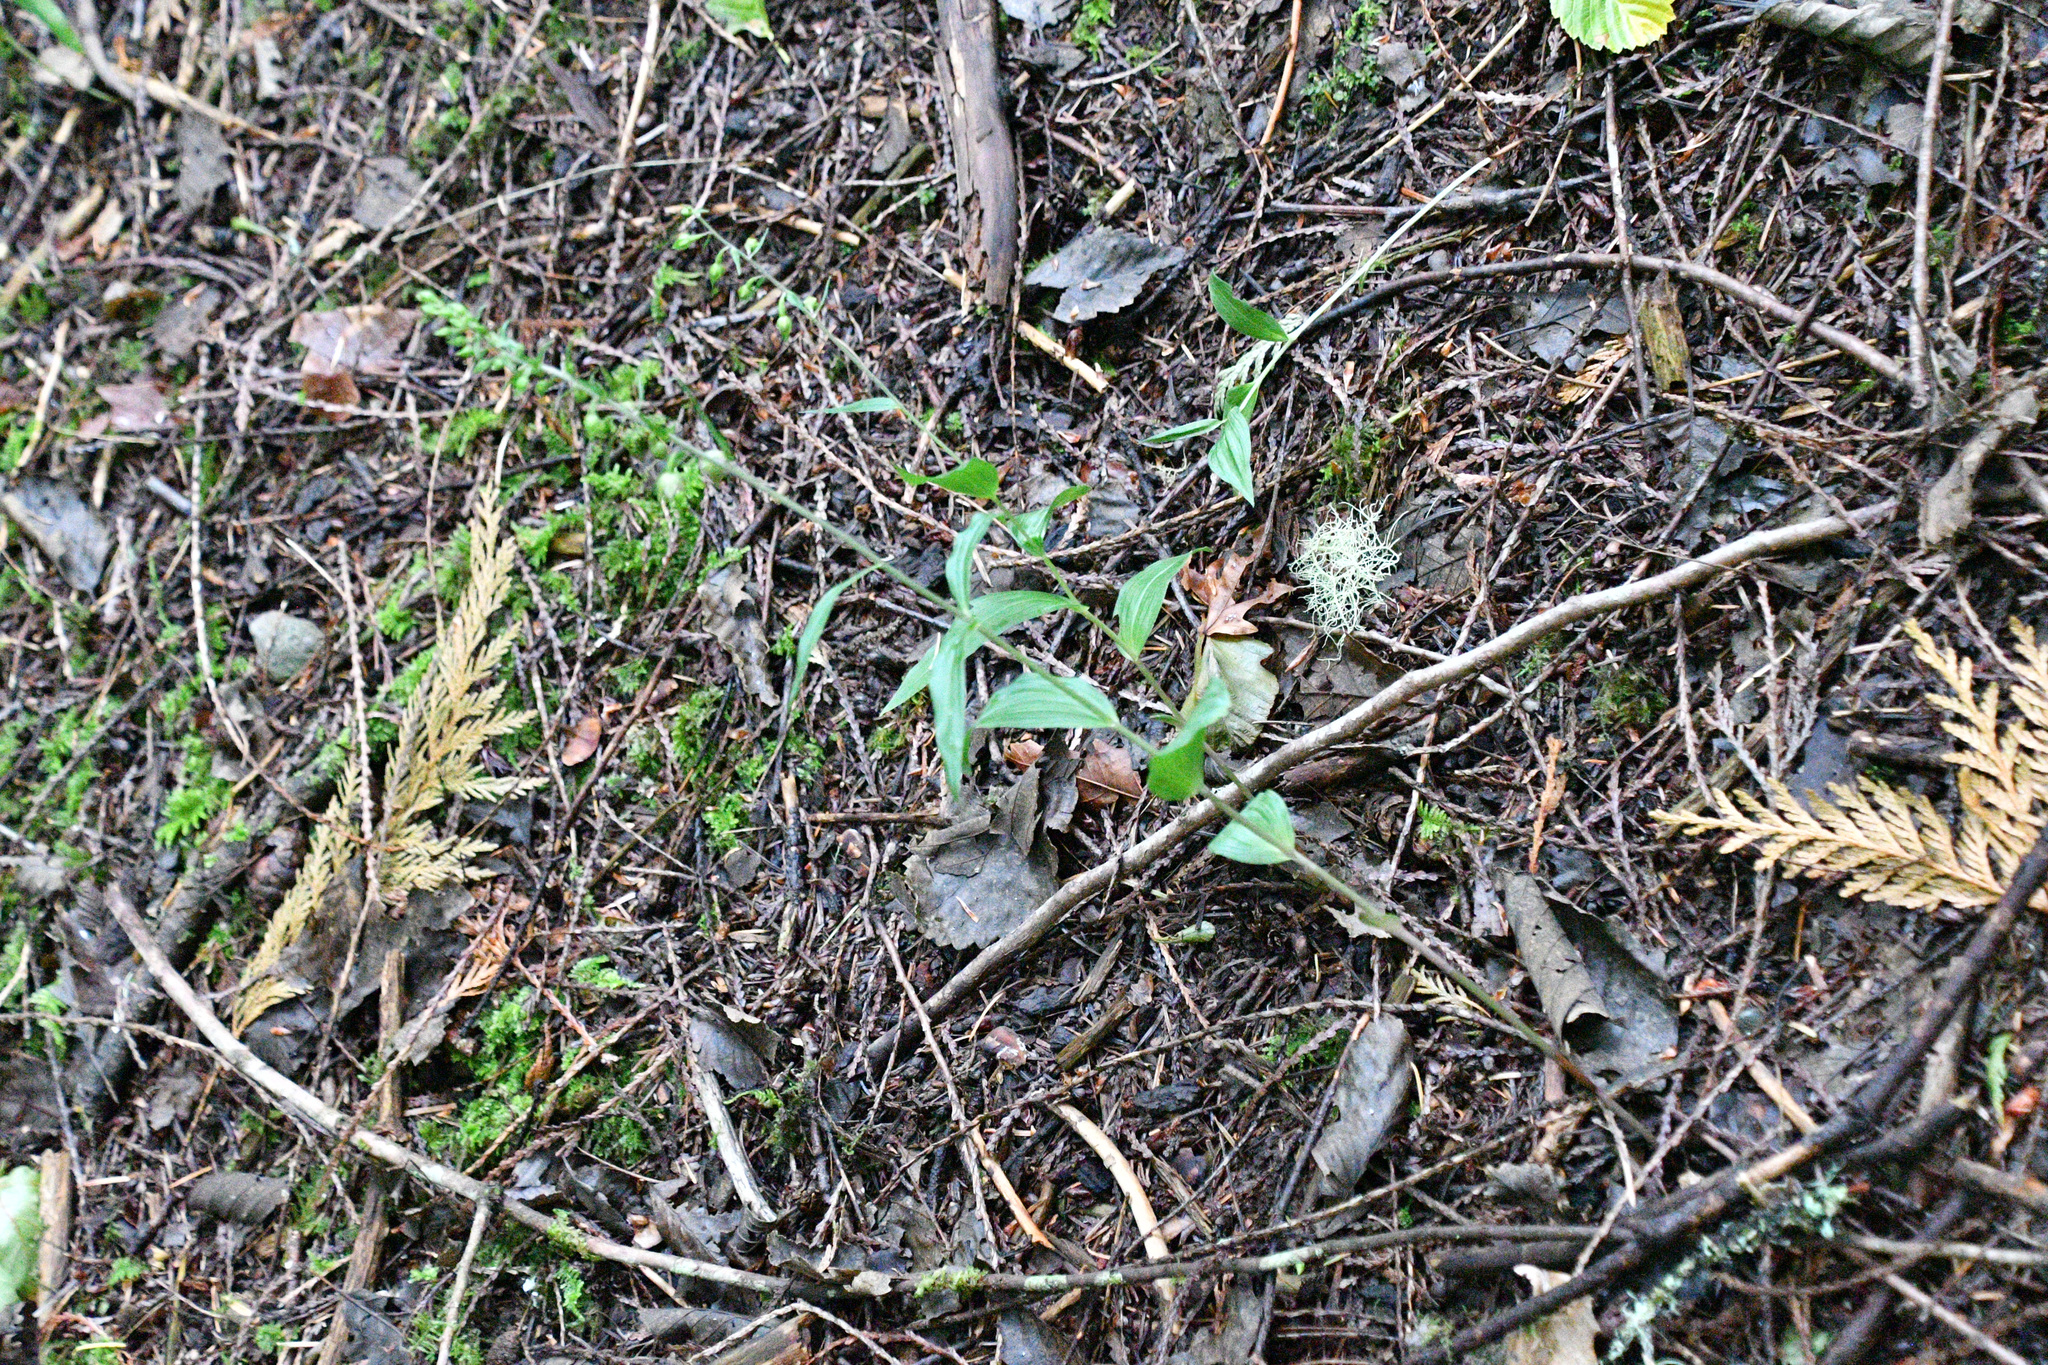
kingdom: Plantae
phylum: Tracheophyta
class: Liliopsida
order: Asparagales
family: Orchidaceae
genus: Epipactis
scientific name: Epipactis helleborine
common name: Broad-leaved helleborine
